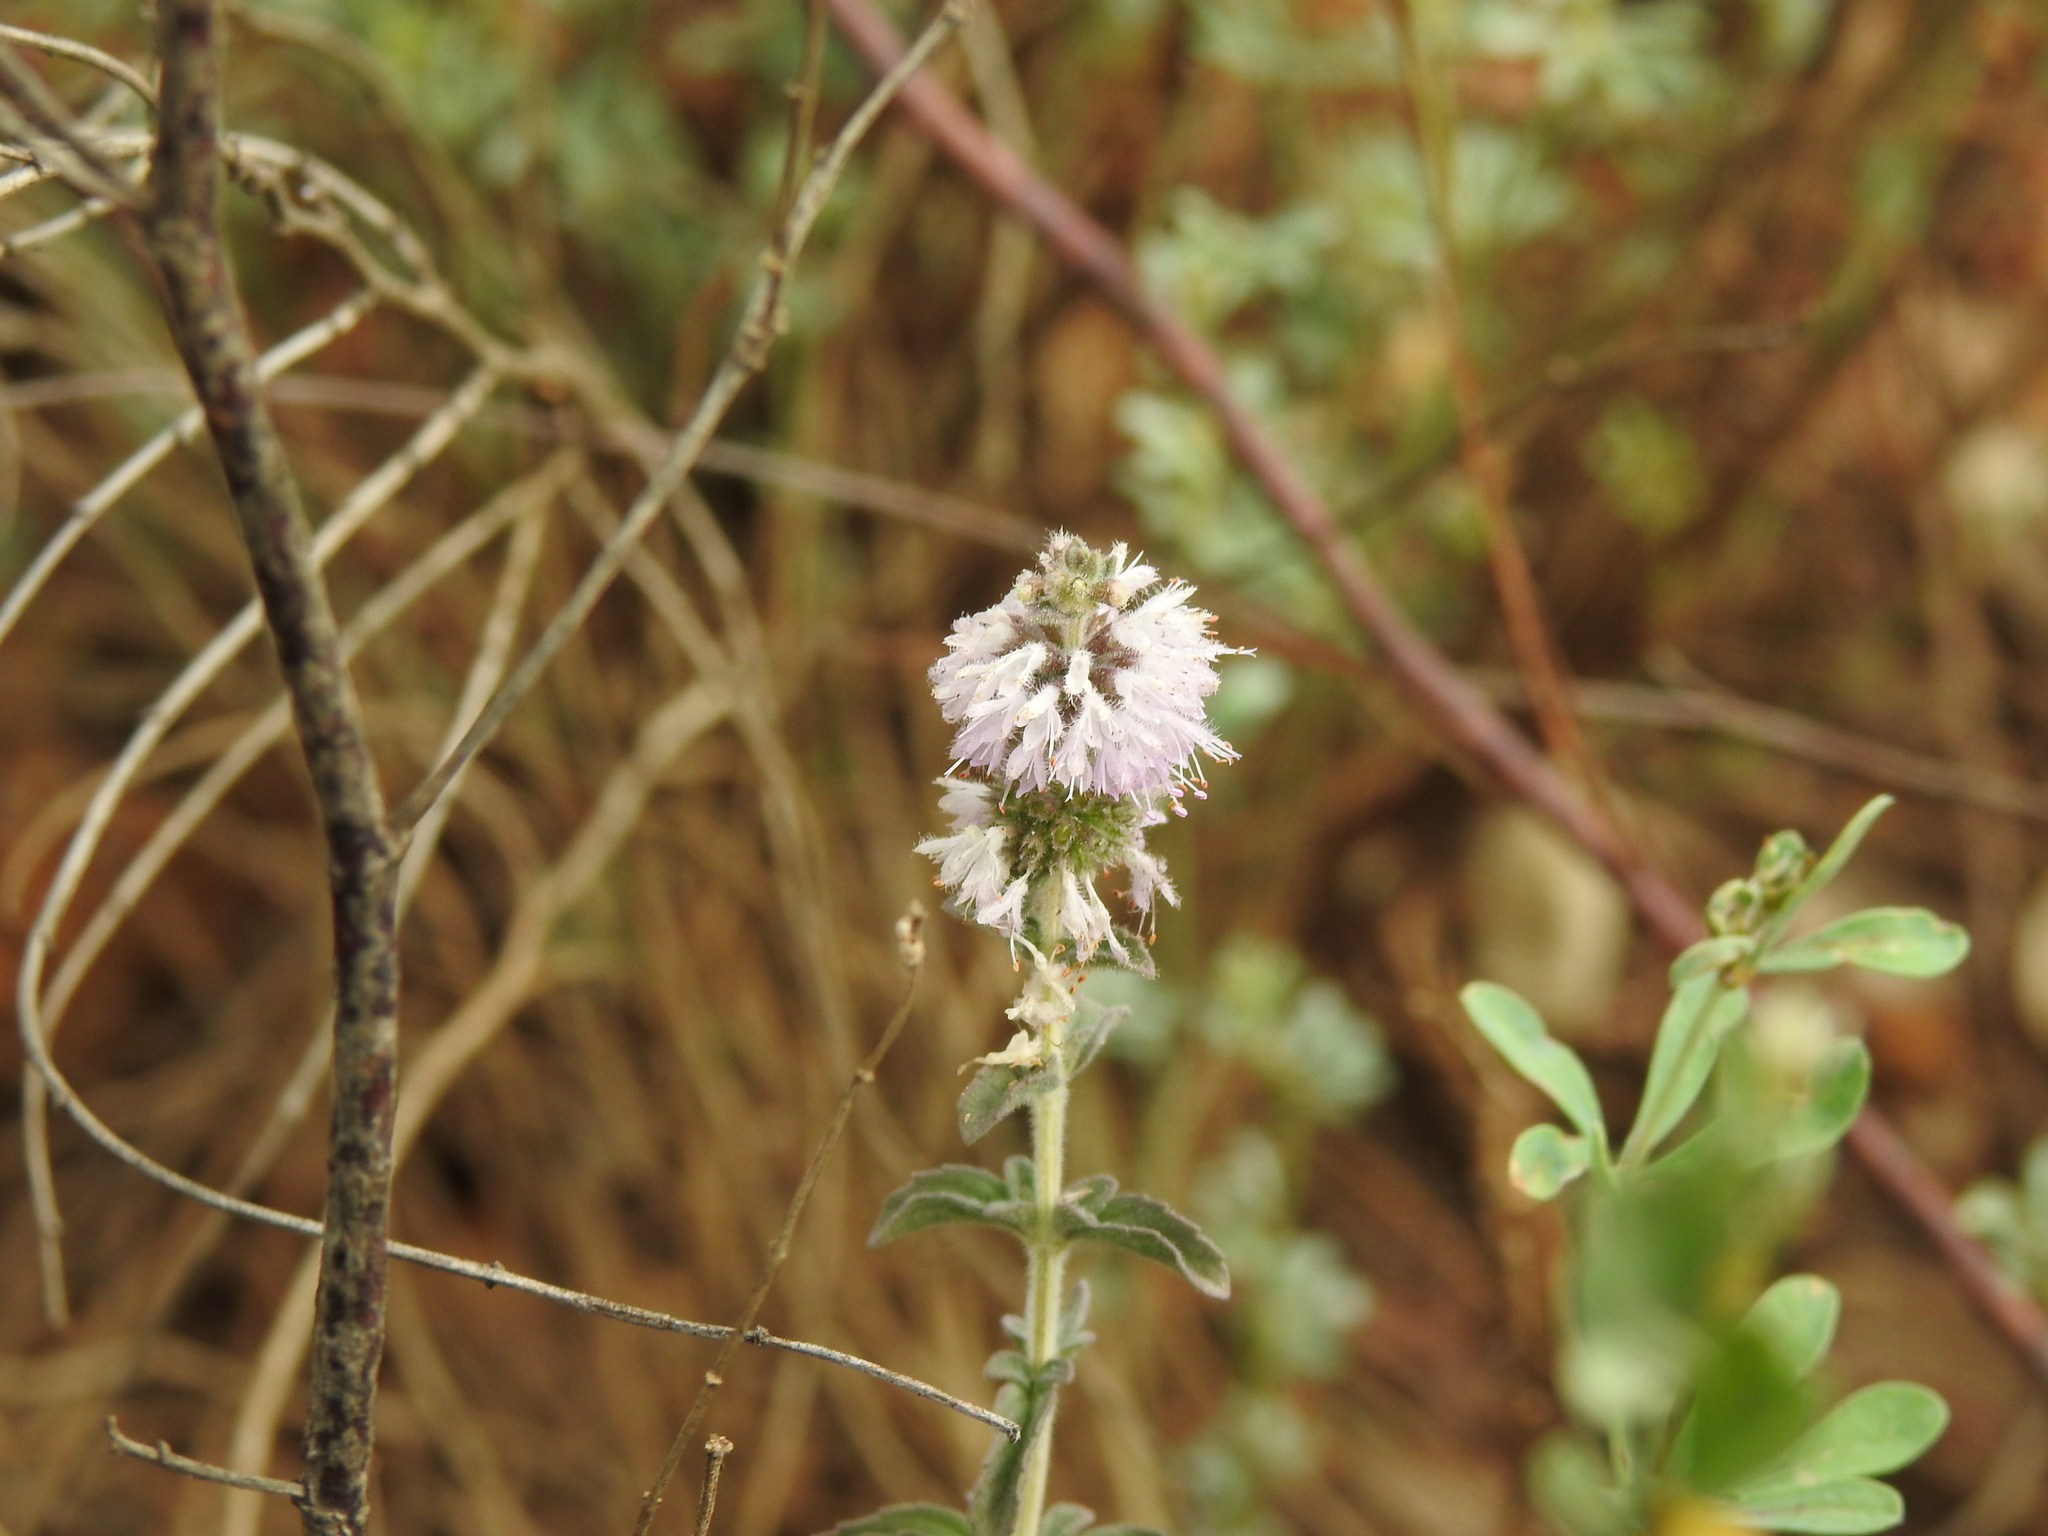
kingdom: Plantae
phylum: Tracheophyta
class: Magnoliopsida
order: Lamiales
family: Lamiaceae
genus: Mentha
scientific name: Mentha pulegium
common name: Pennyroyal
